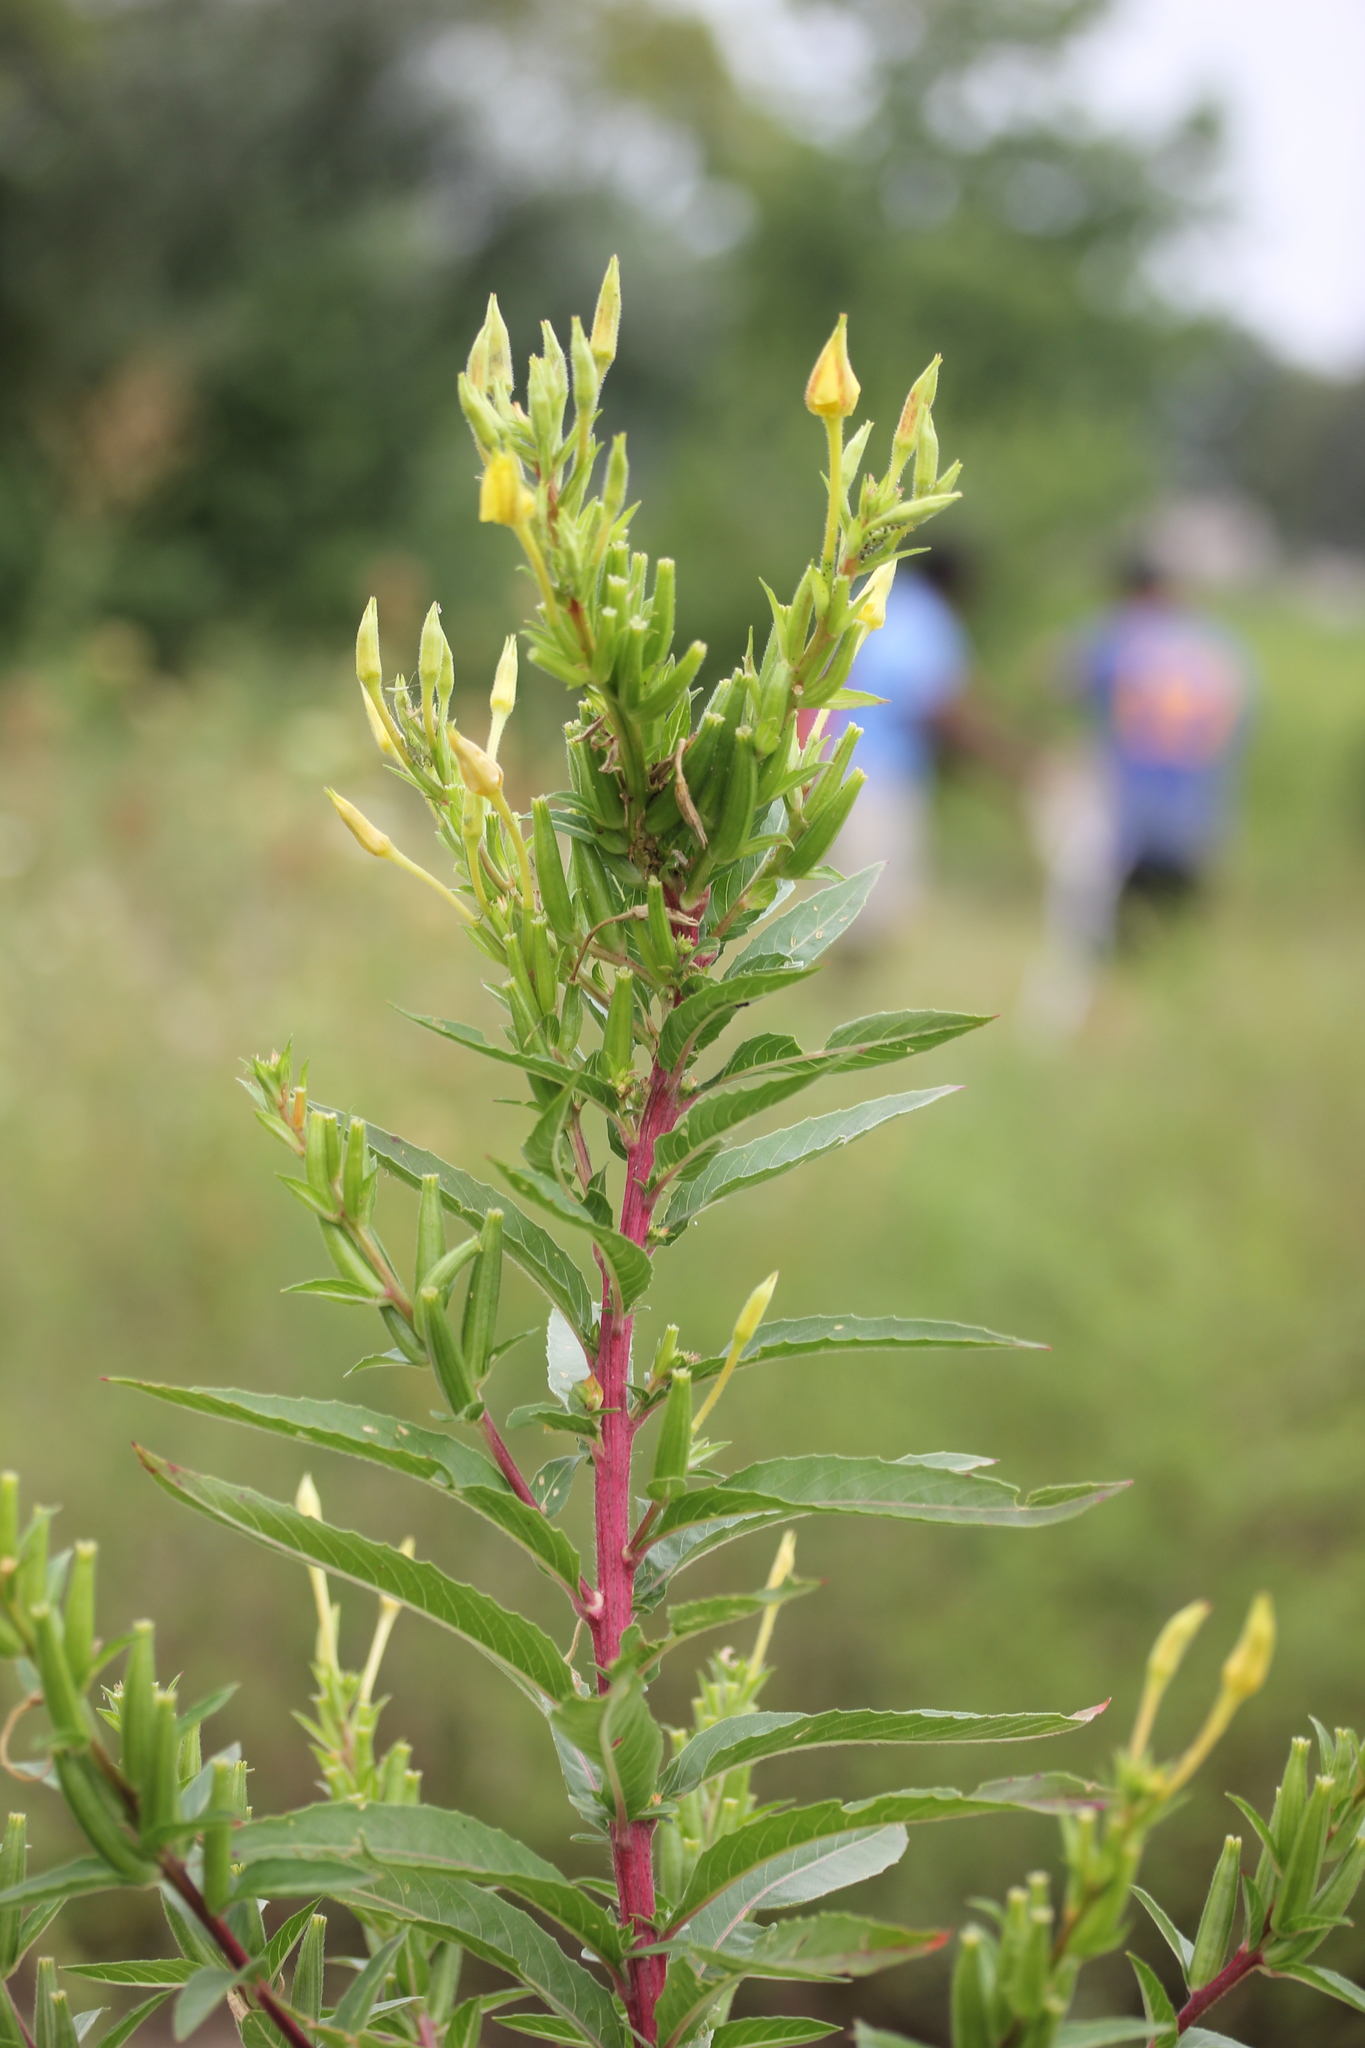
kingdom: Plantae
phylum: Tracheophyta
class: Magnoliopsida
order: Myrtales
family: Onagraceae
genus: Oenothera
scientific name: Oenothera biennis
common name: Common evening-primrose
